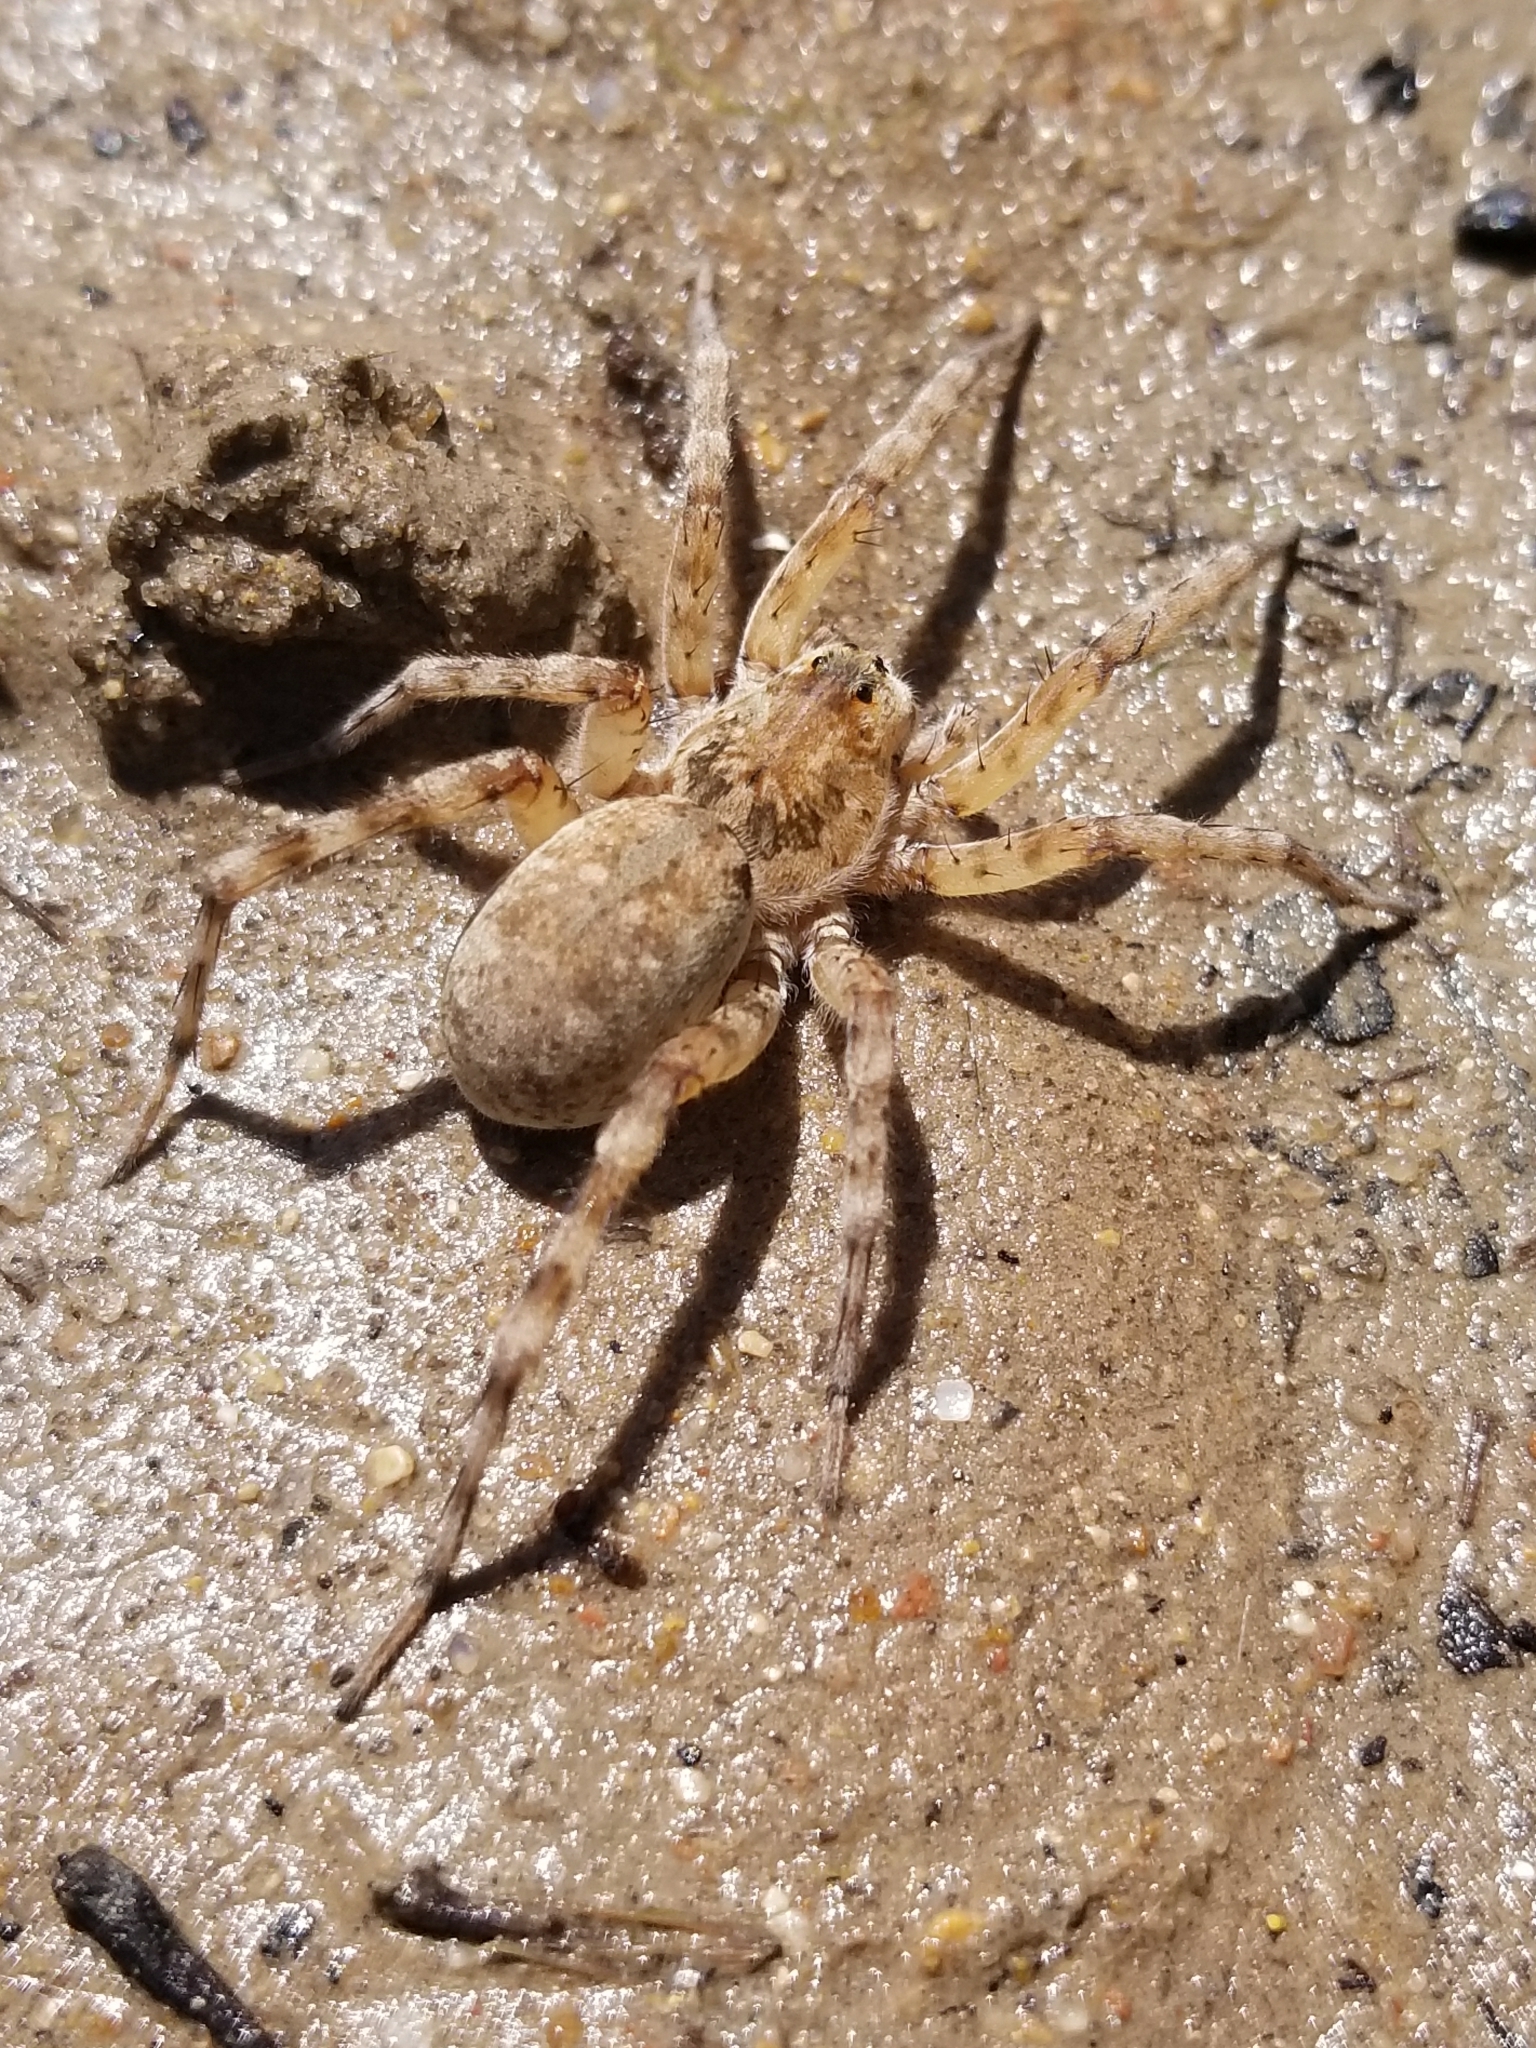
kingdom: Animalia
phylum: Arthropoda
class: Arachnida
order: Araneae
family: Lycosidae
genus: Arctosa
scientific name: Arctosa littoralis
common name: Wolf spiders
